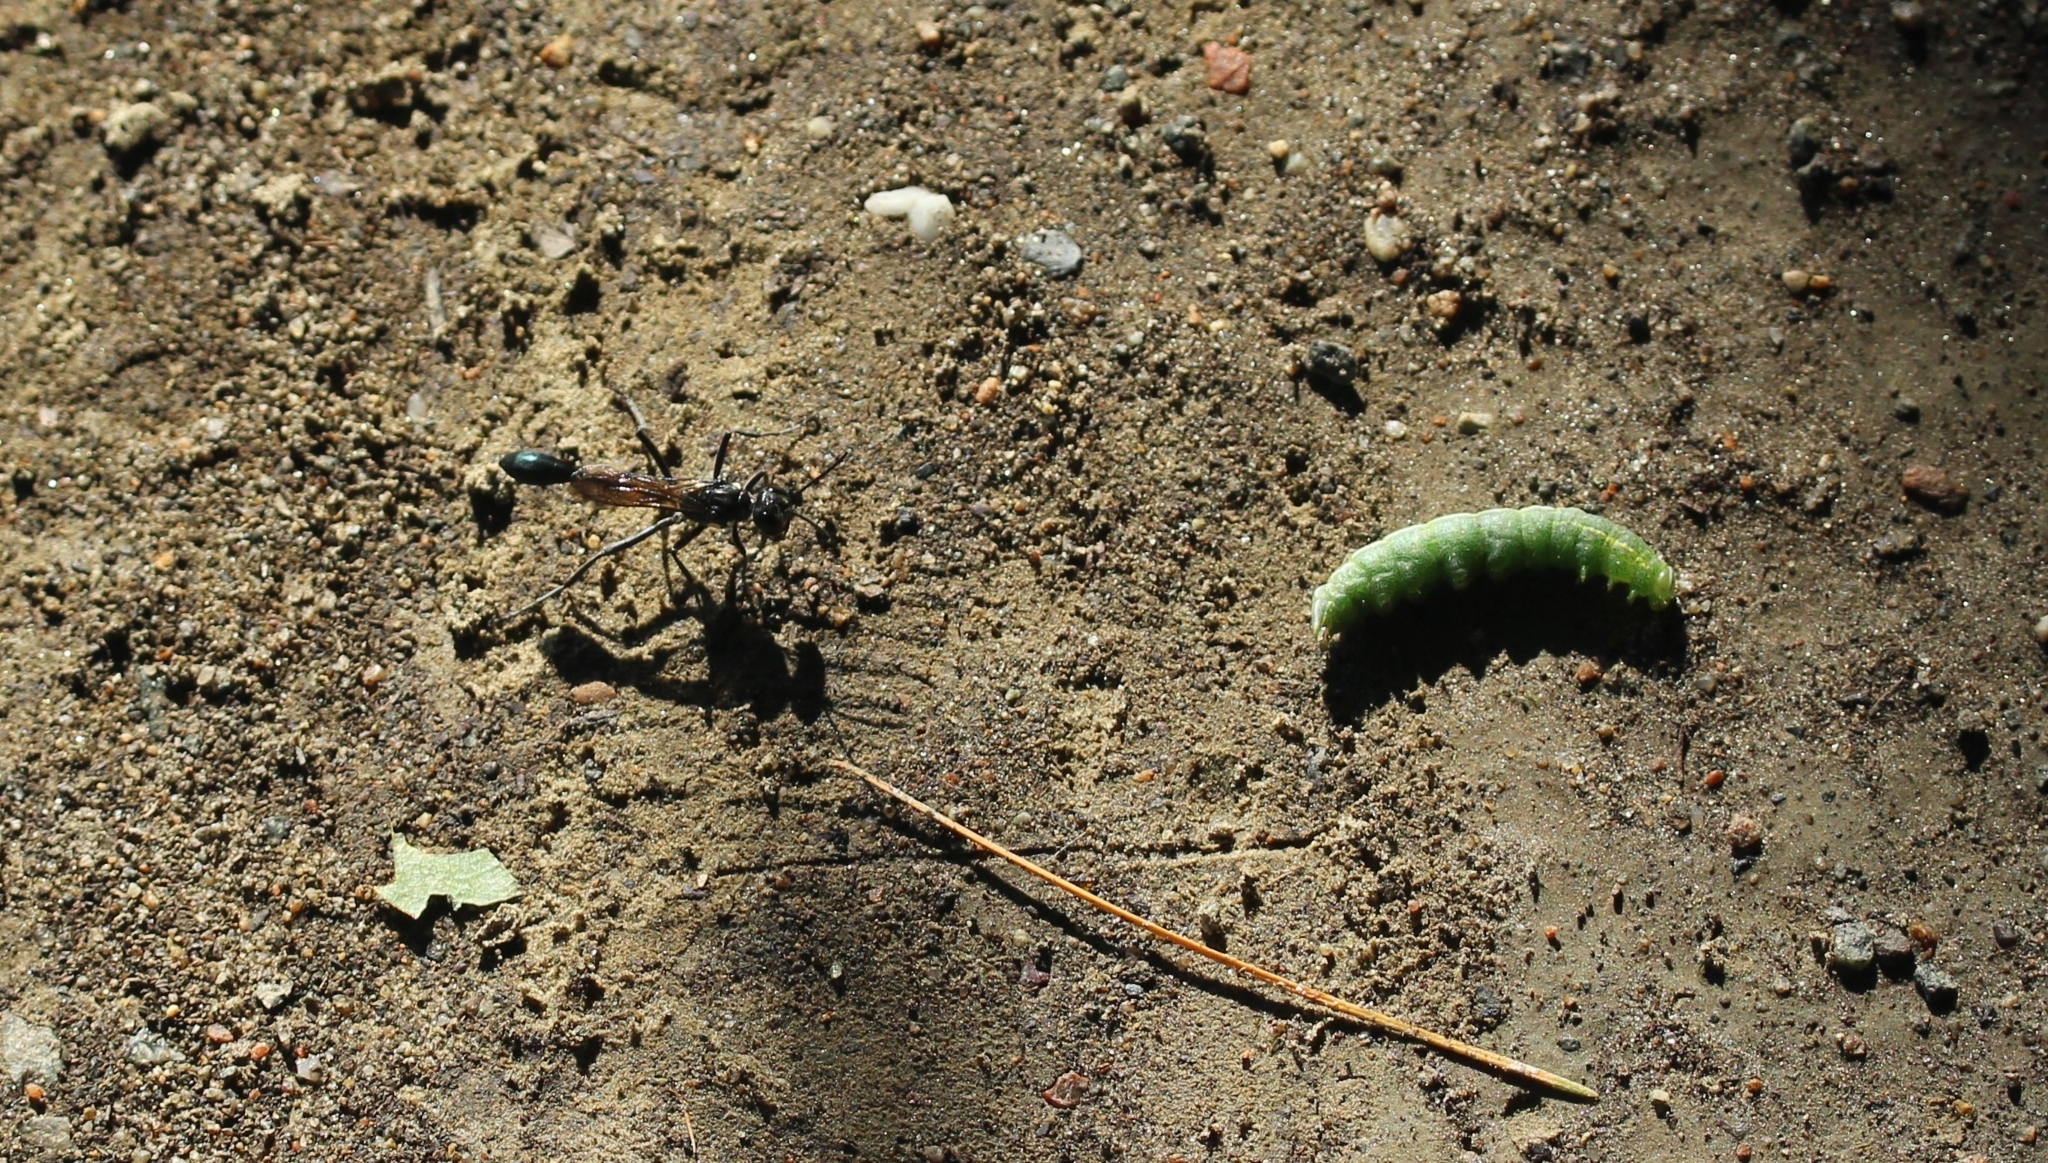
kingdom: Animalia
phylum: Arthropoda
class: Insecta
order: Hymenoptera
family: Sphecidae
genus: Eremnophila
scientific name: Eremnophila aureonotata
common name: Gold-marked thread-waisted wasp
